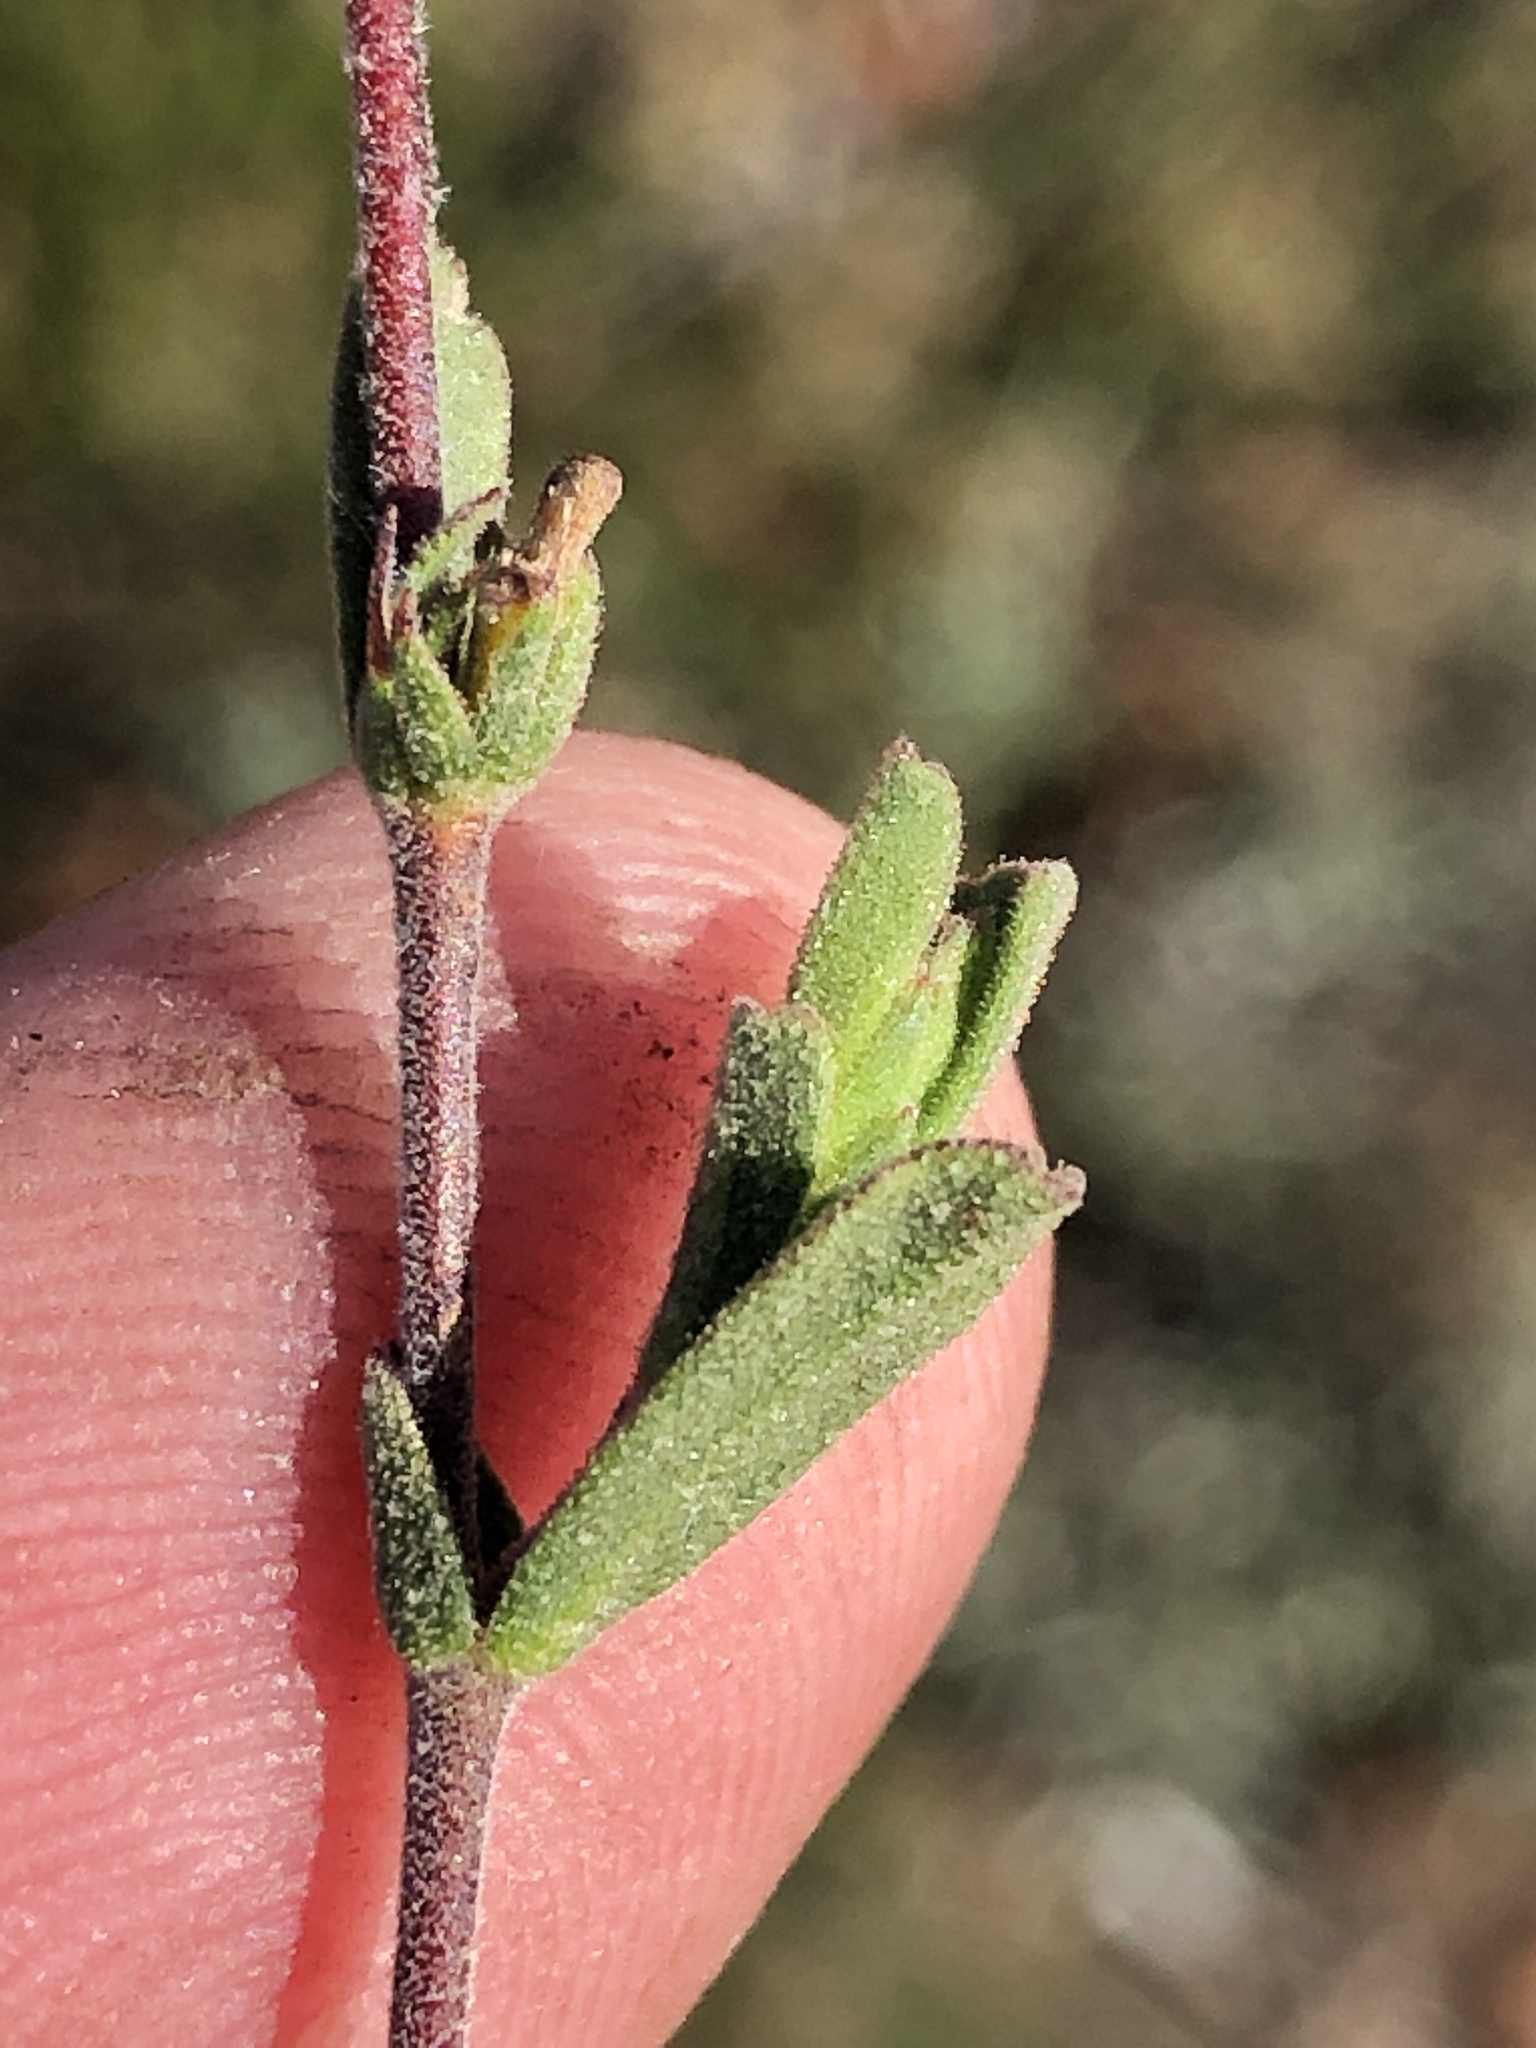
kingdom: Plantae
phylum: Tracheophyta
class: Magnoliopsida
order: Malvales
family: Malvaceae
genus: Hermannia
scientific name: Hermannia flammula
